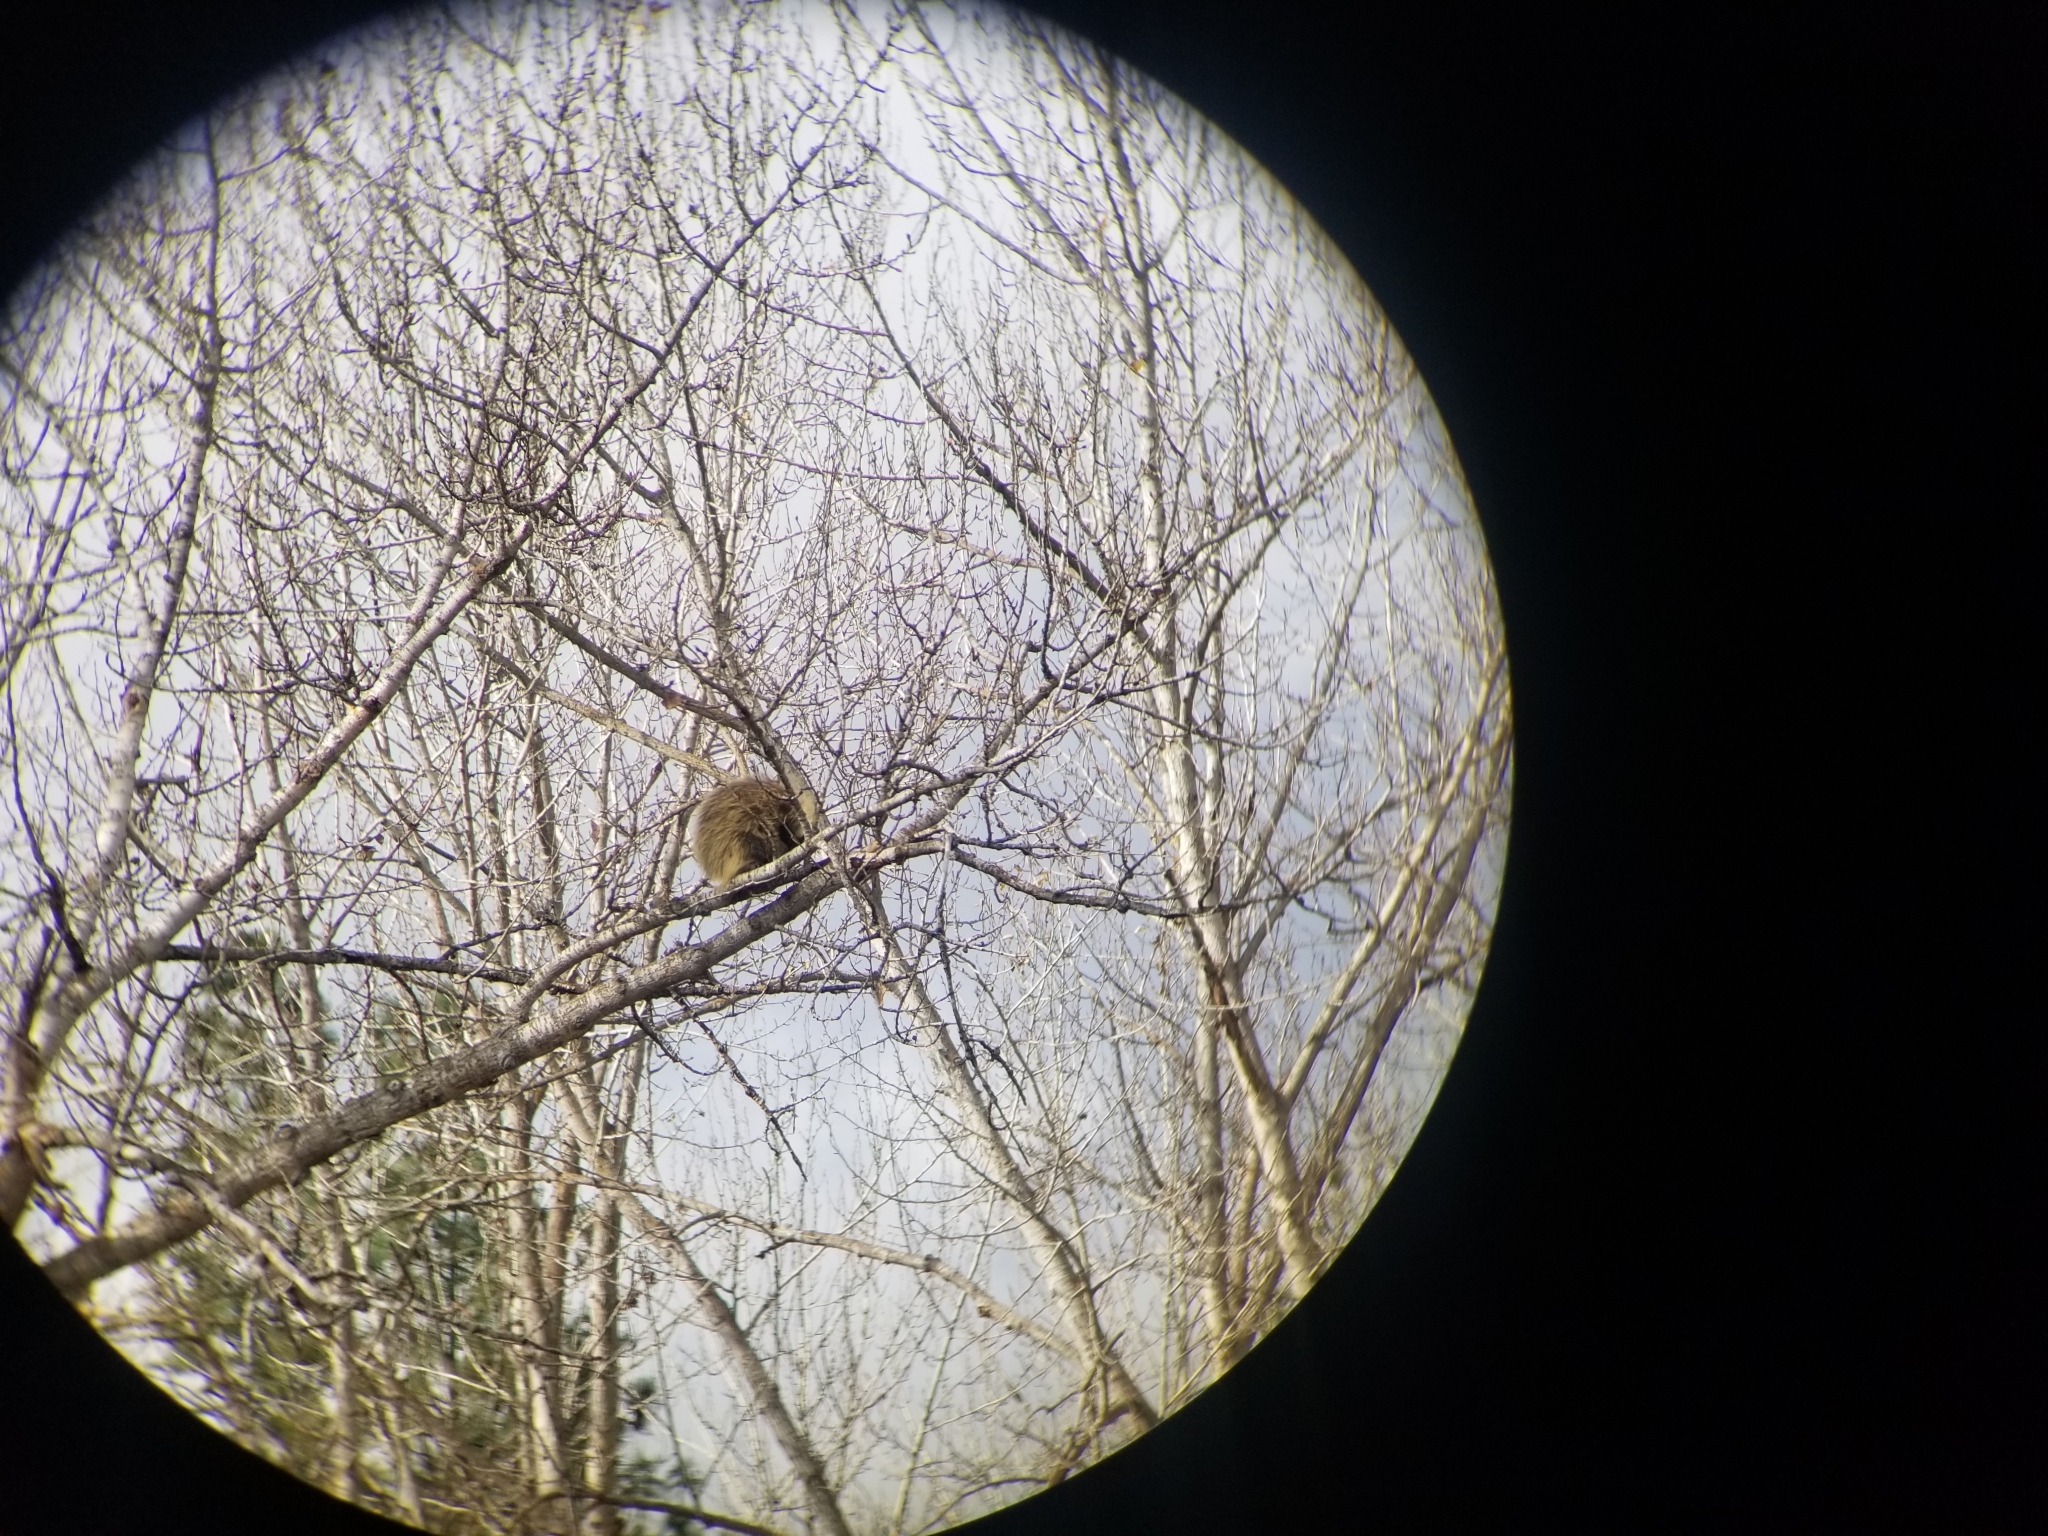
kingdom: Animalia
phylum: Chordata
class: Mammalia
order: Rodentia
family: Erethizontidae
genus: Erethizon
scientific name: Erethizon dorsatus
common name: North american porcupine
